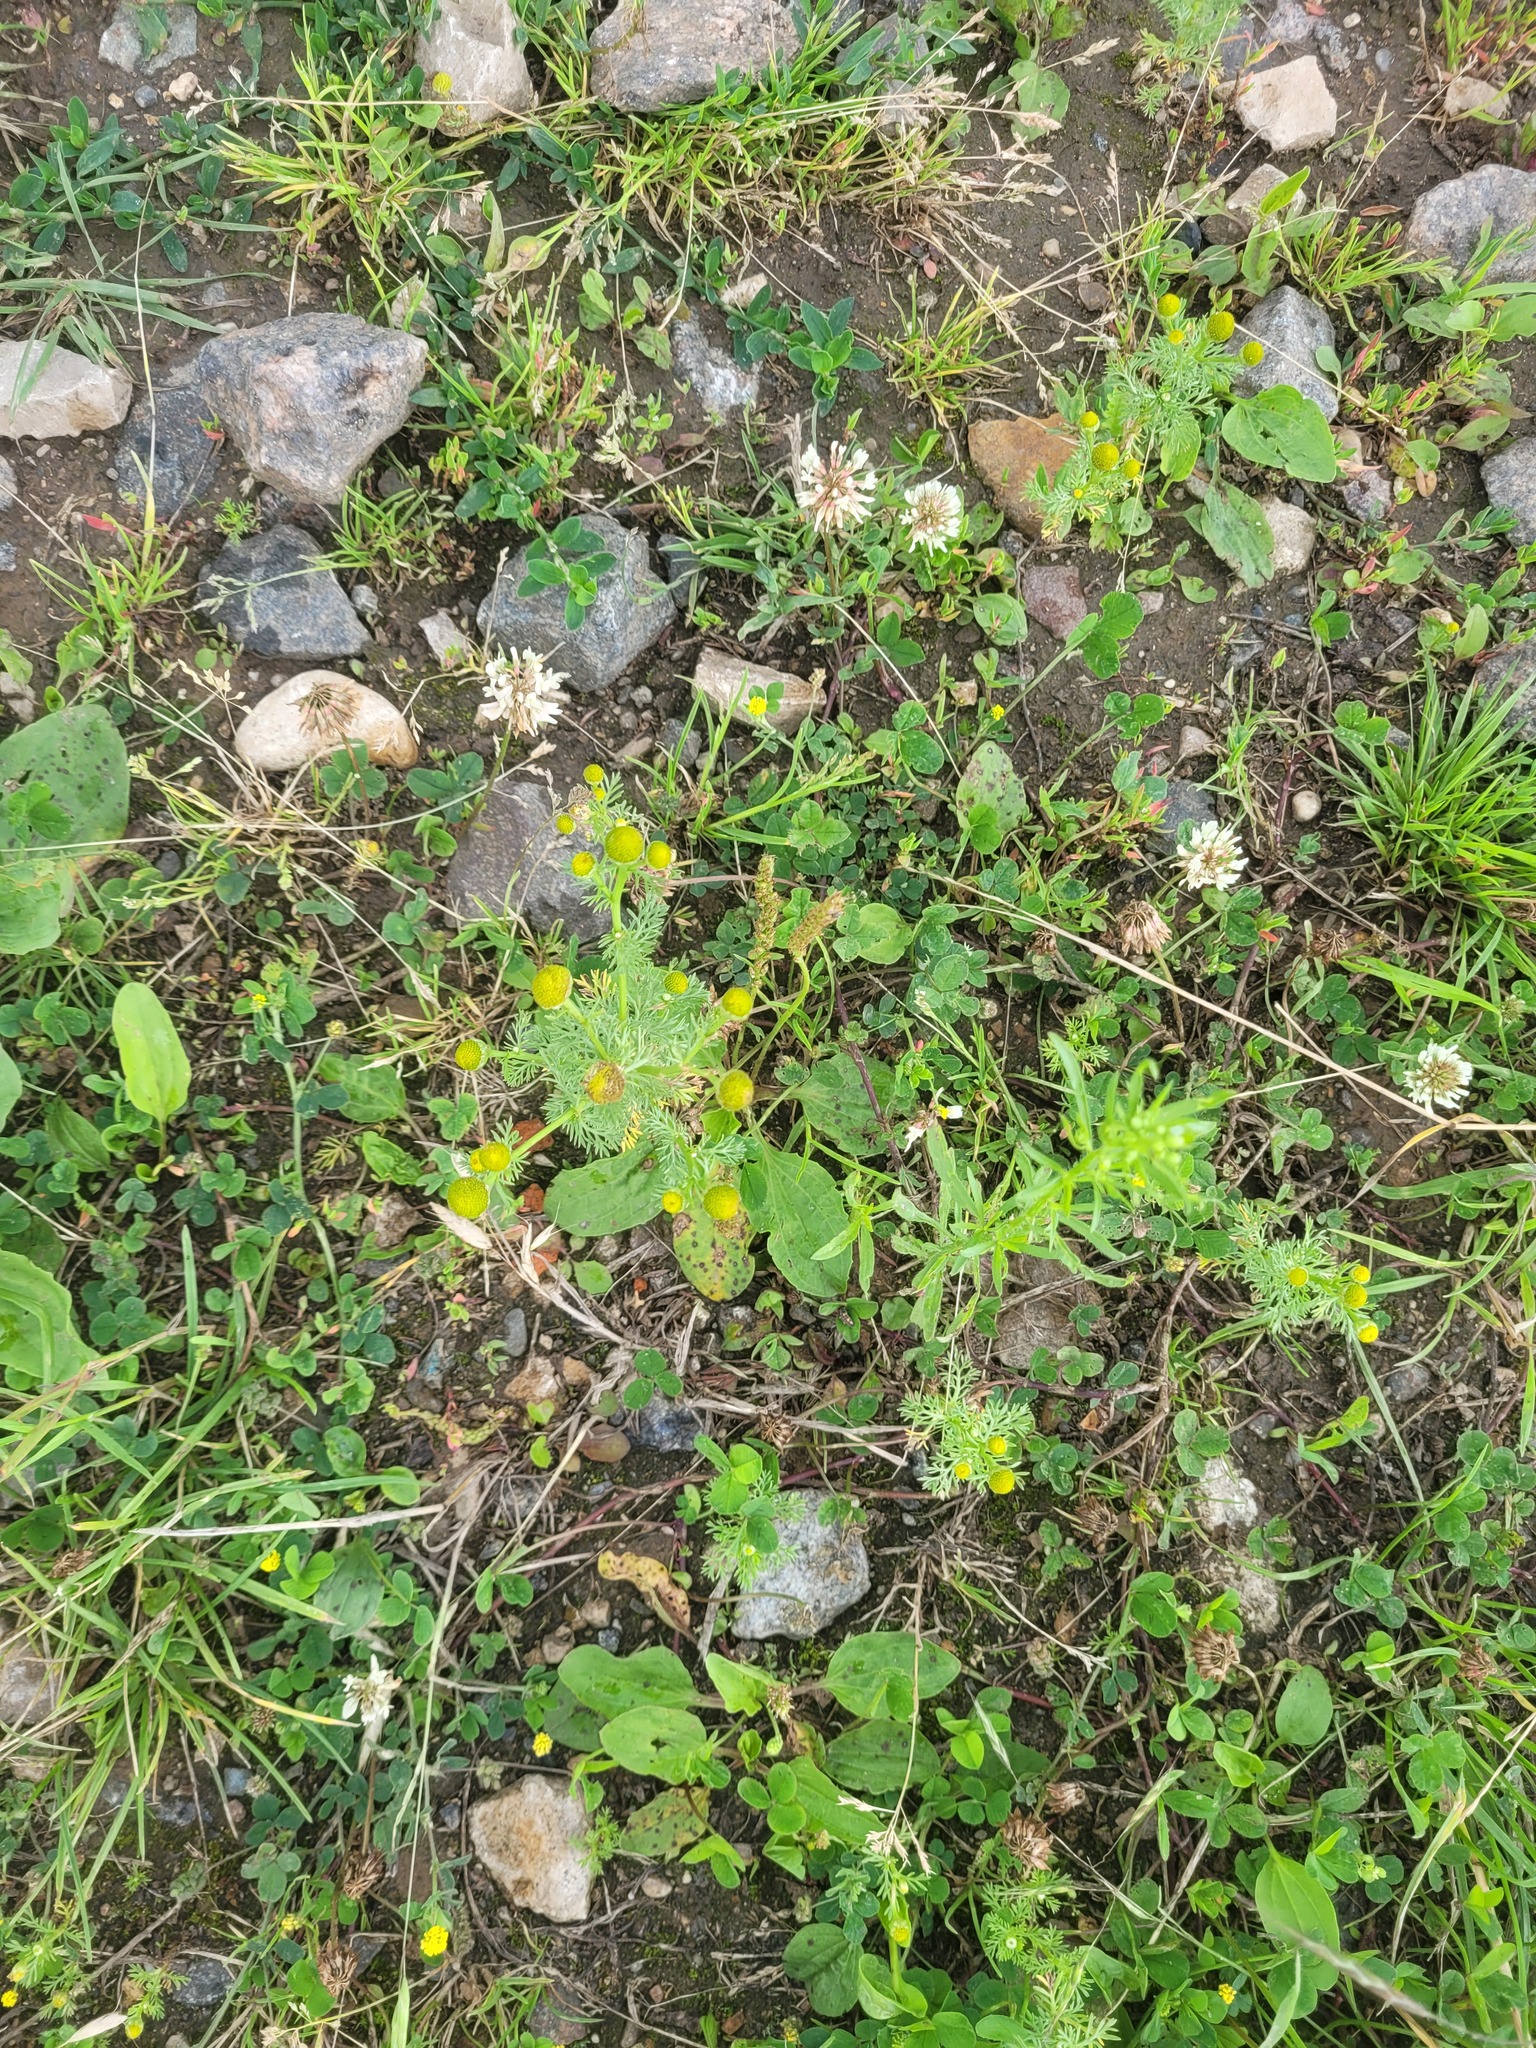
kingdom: Plantae
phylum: Tracheophyta
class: Magnoliopsida
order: Asterales
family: Asteraceae
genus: Matricaria
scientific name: Matricaria discoidea
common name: Disc mayweed
